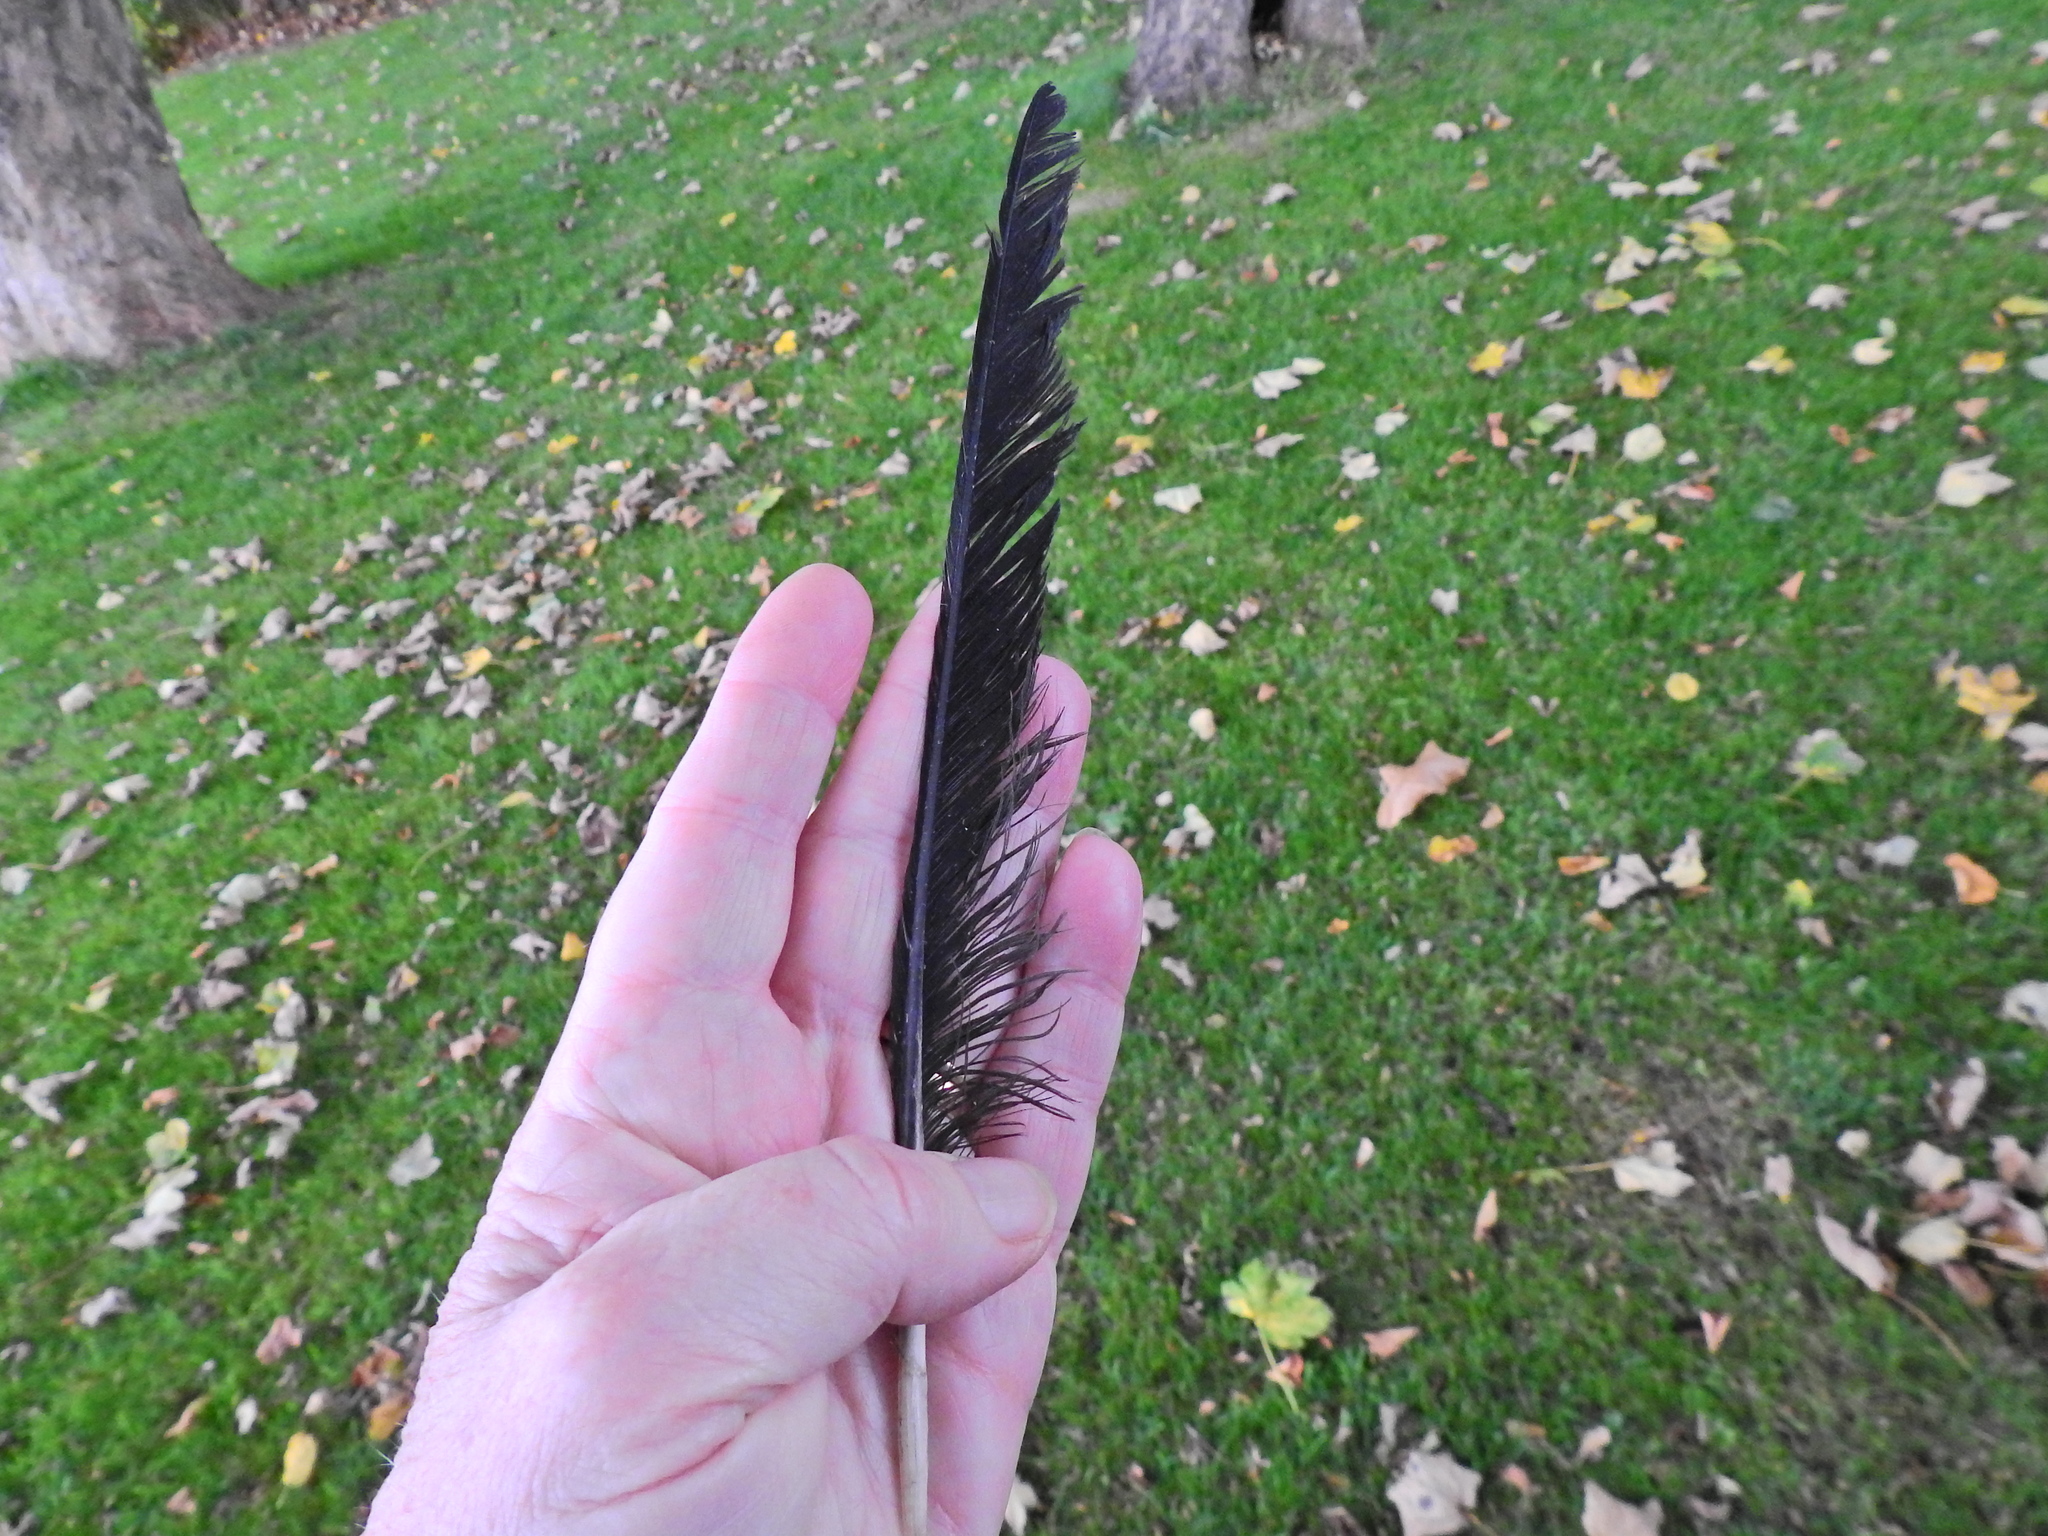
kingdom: Animalia
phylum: Chordata
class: Aves
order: Passeriformes
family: Corvidae
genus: Corvus
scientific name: Corvus corone
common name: Carrion crow
